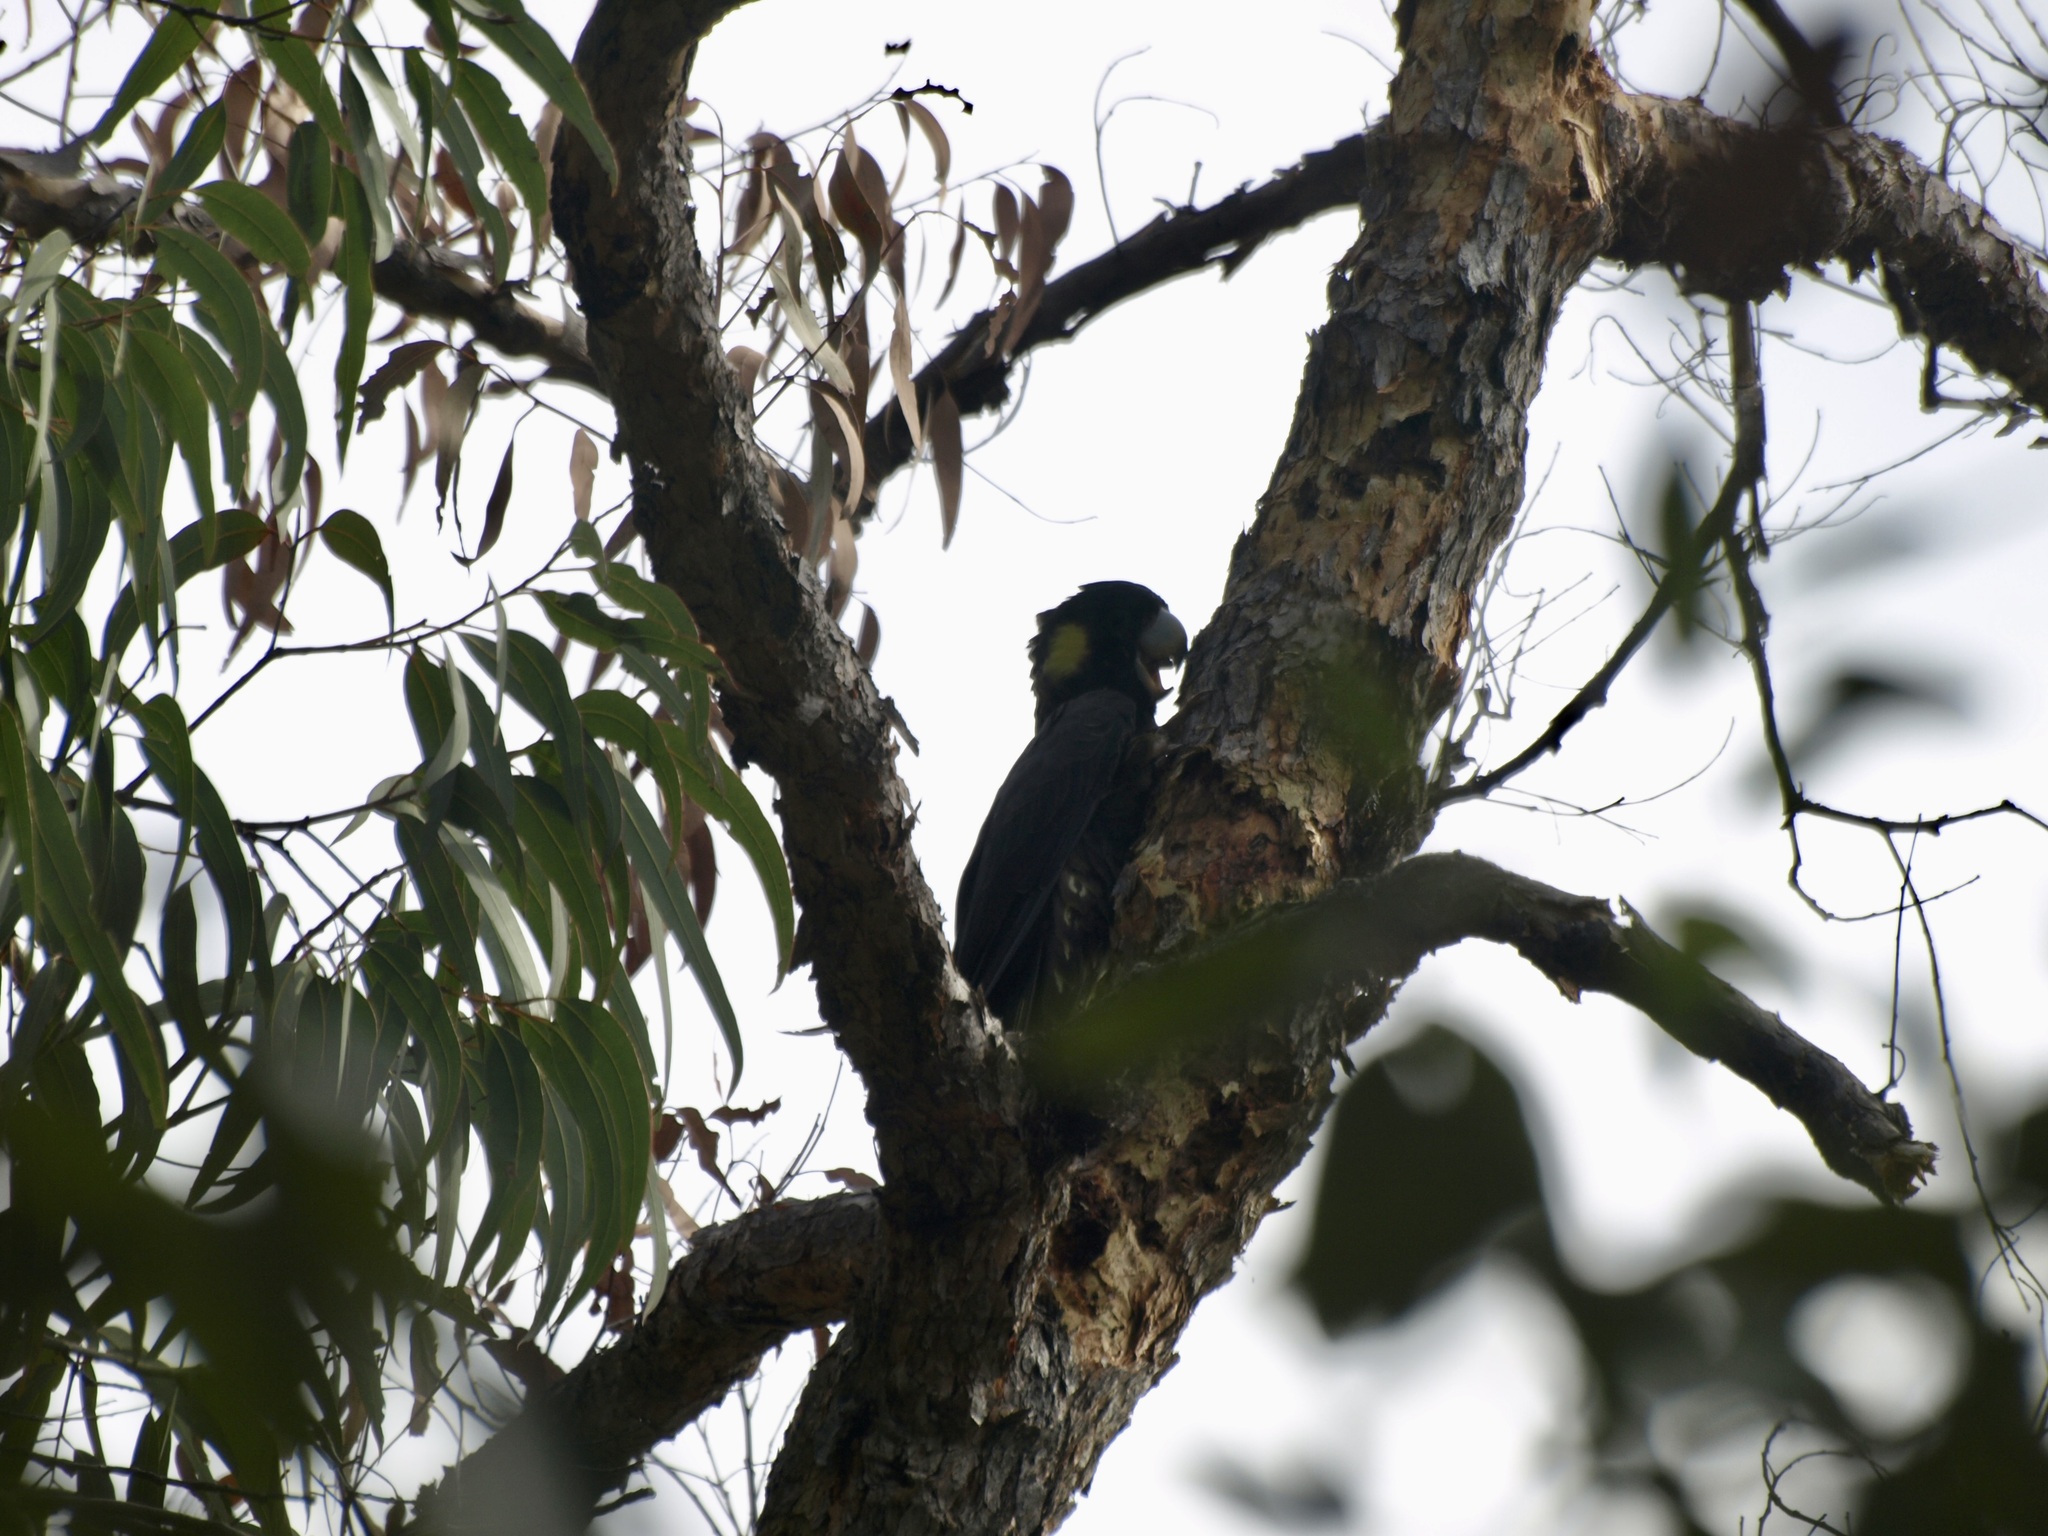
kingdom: Animalia
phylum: Chordata
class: Aves
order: Psittaciformes
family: Cacatuidae
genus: Zanda
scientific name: Zanda funerea
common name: Yellow-tailed black-cockatoo
